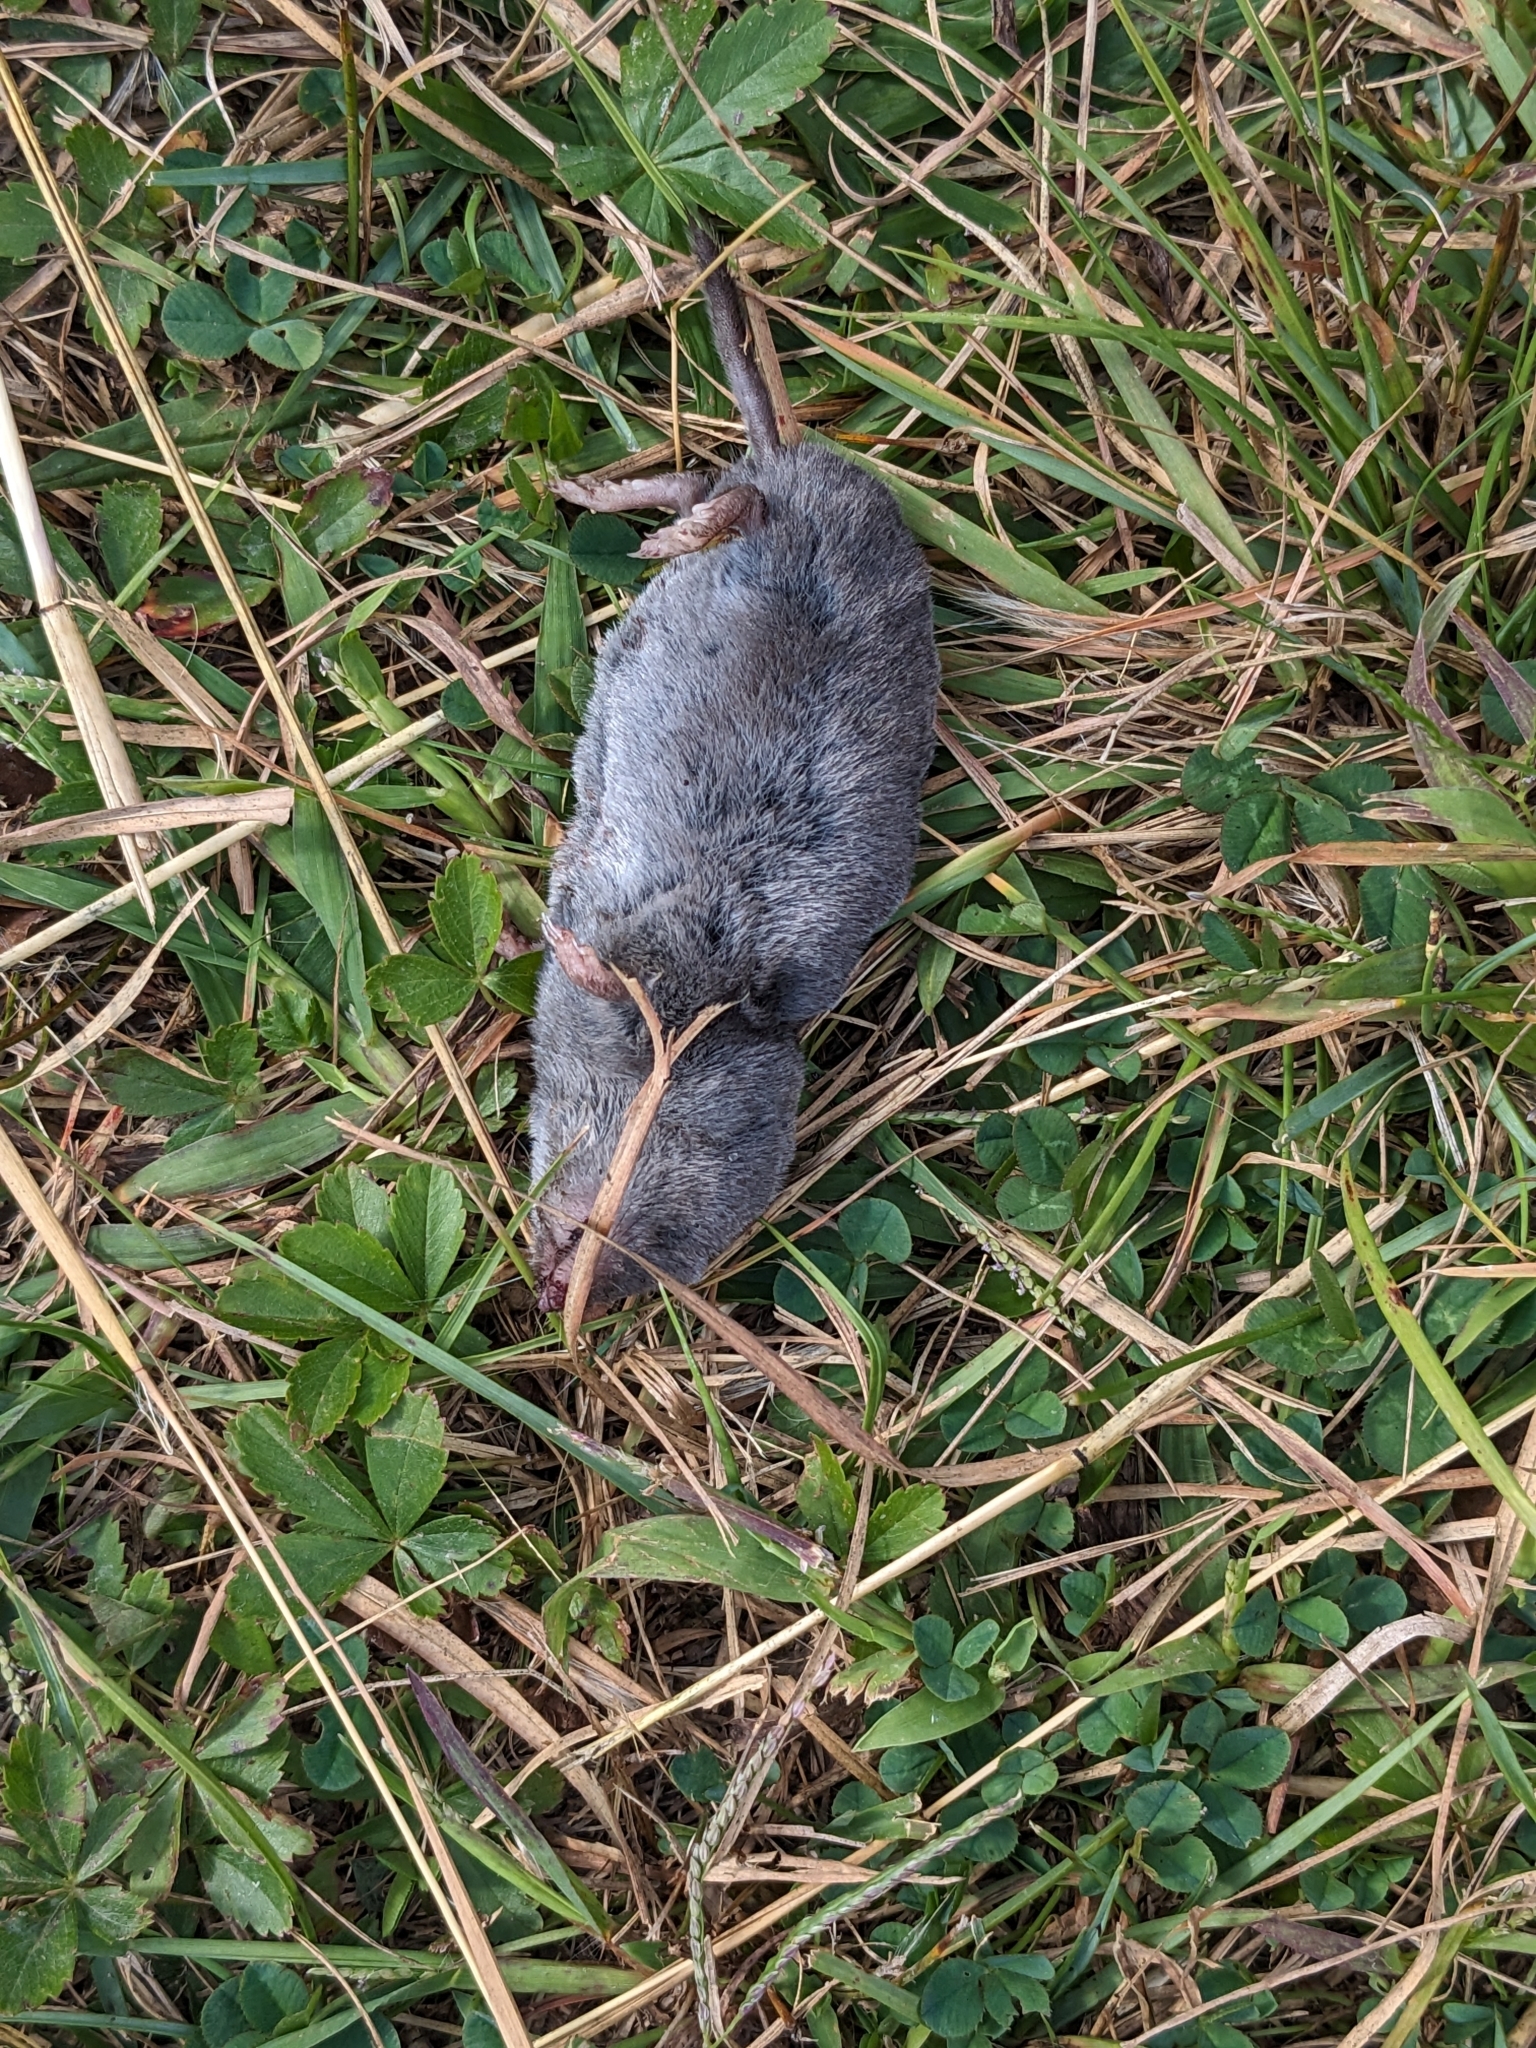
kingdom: Animalia
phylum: Chordata
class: Mammalia
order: Soricomorpha
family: Soricidae
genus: Blarina
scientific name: Blarina brevicauda
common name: Northern short-tailed shrew
